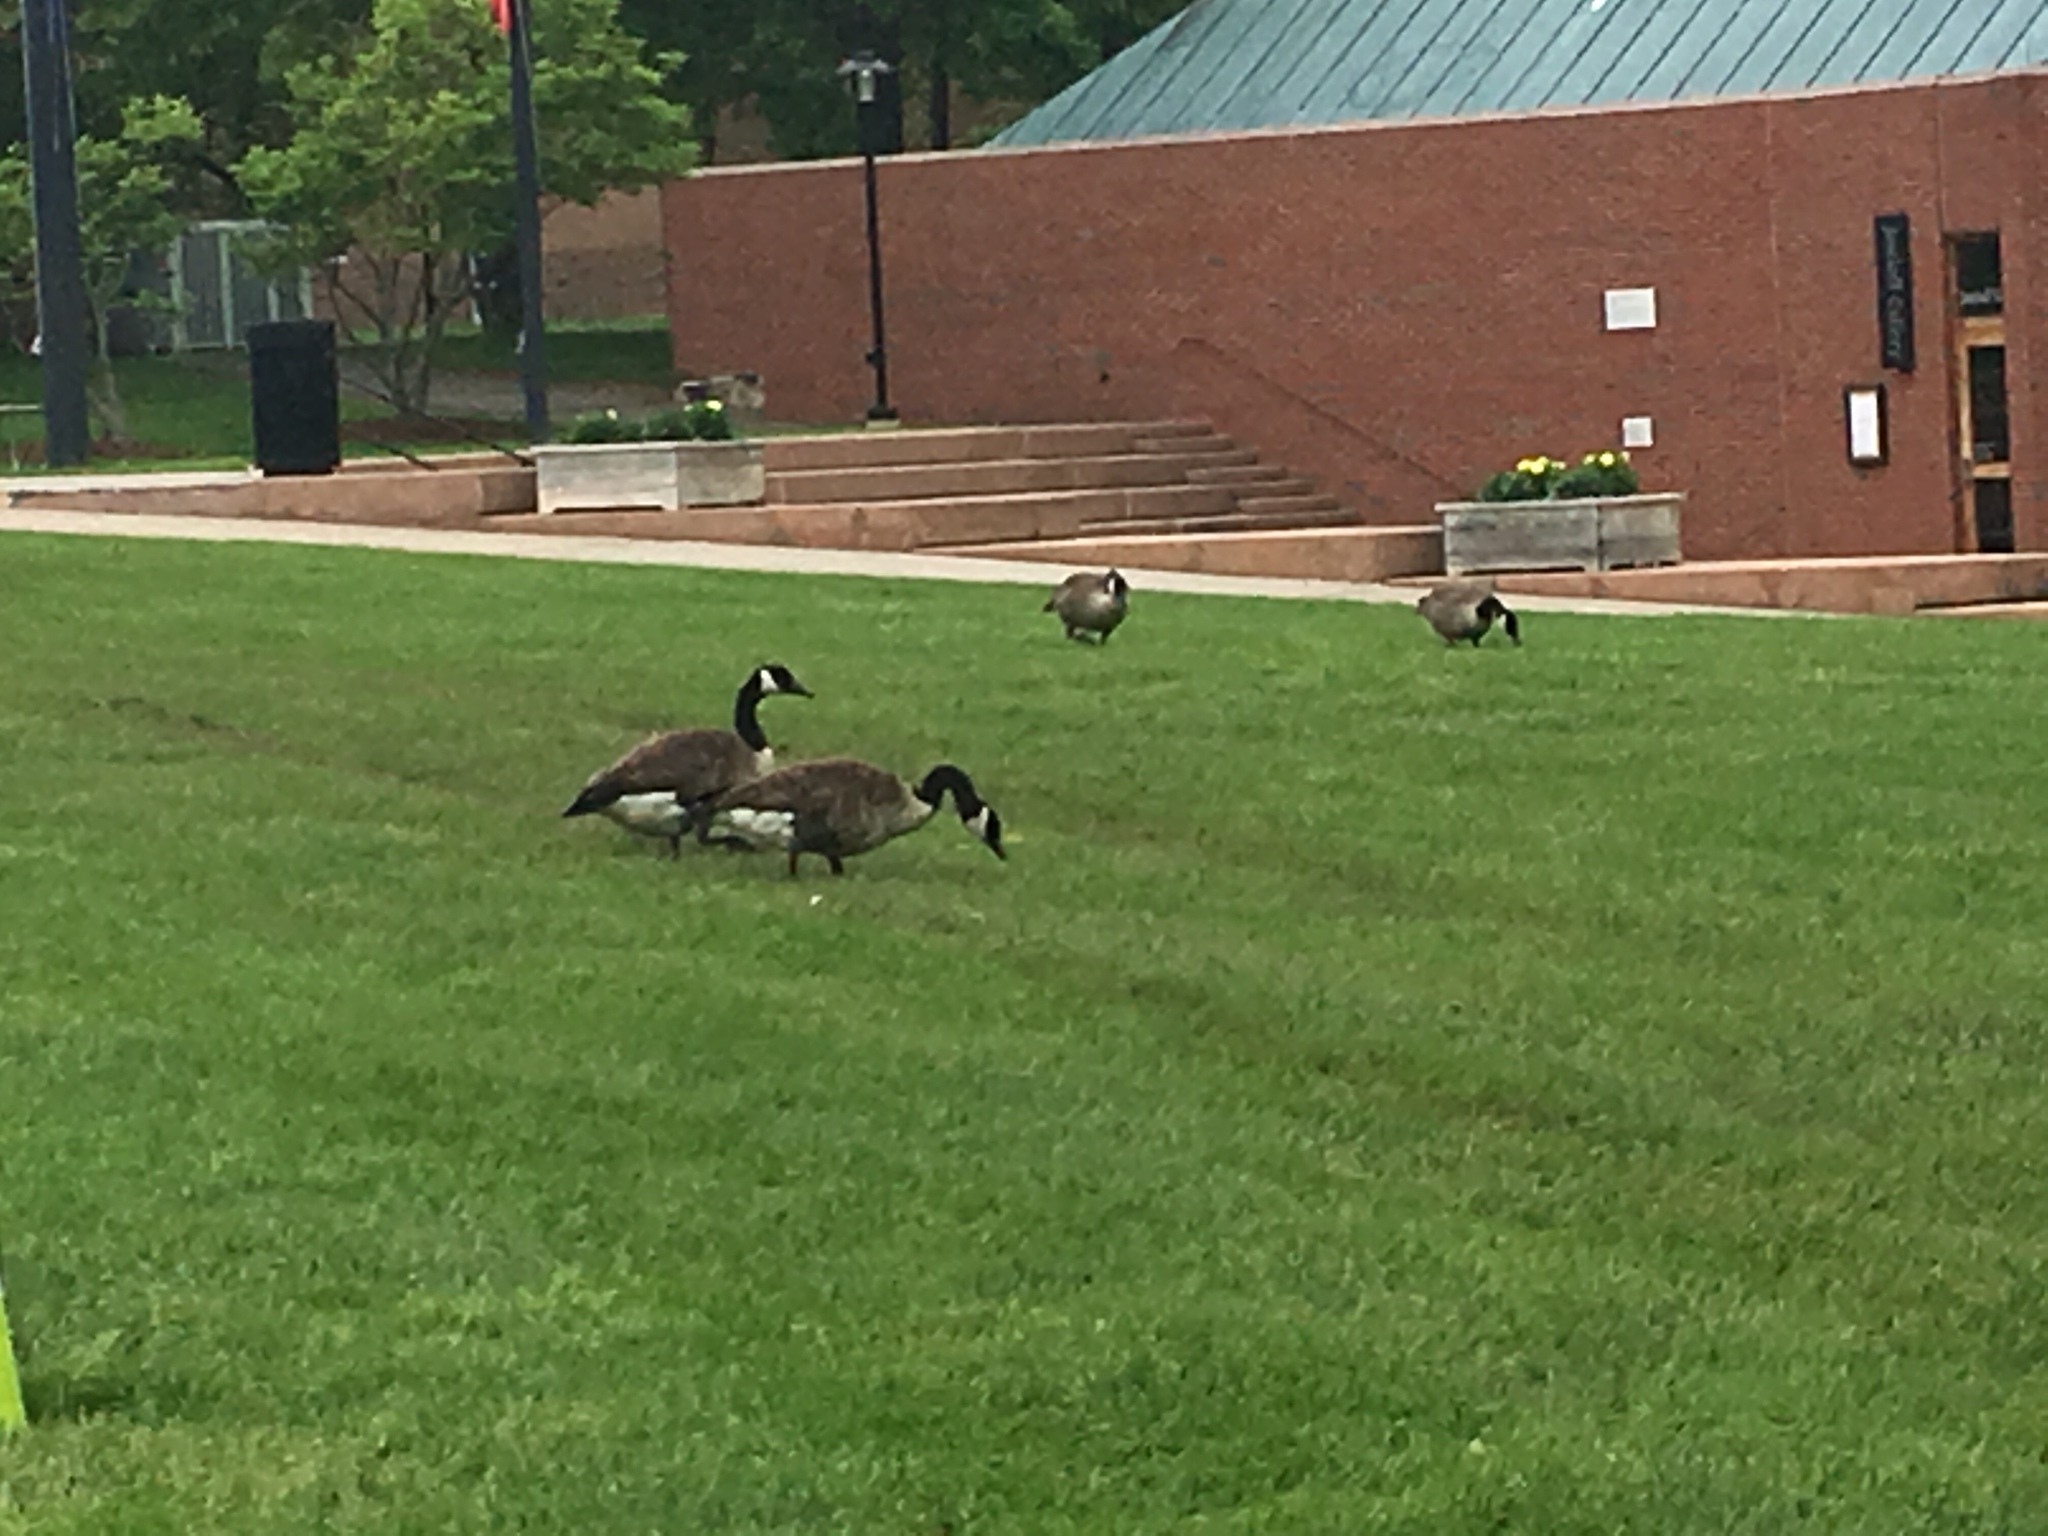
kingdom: Animalia
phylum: Chordata
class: Aves
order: Anseriformes
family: Anatidae
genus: Branta
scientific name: Branta canadensis
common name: Canada goose
